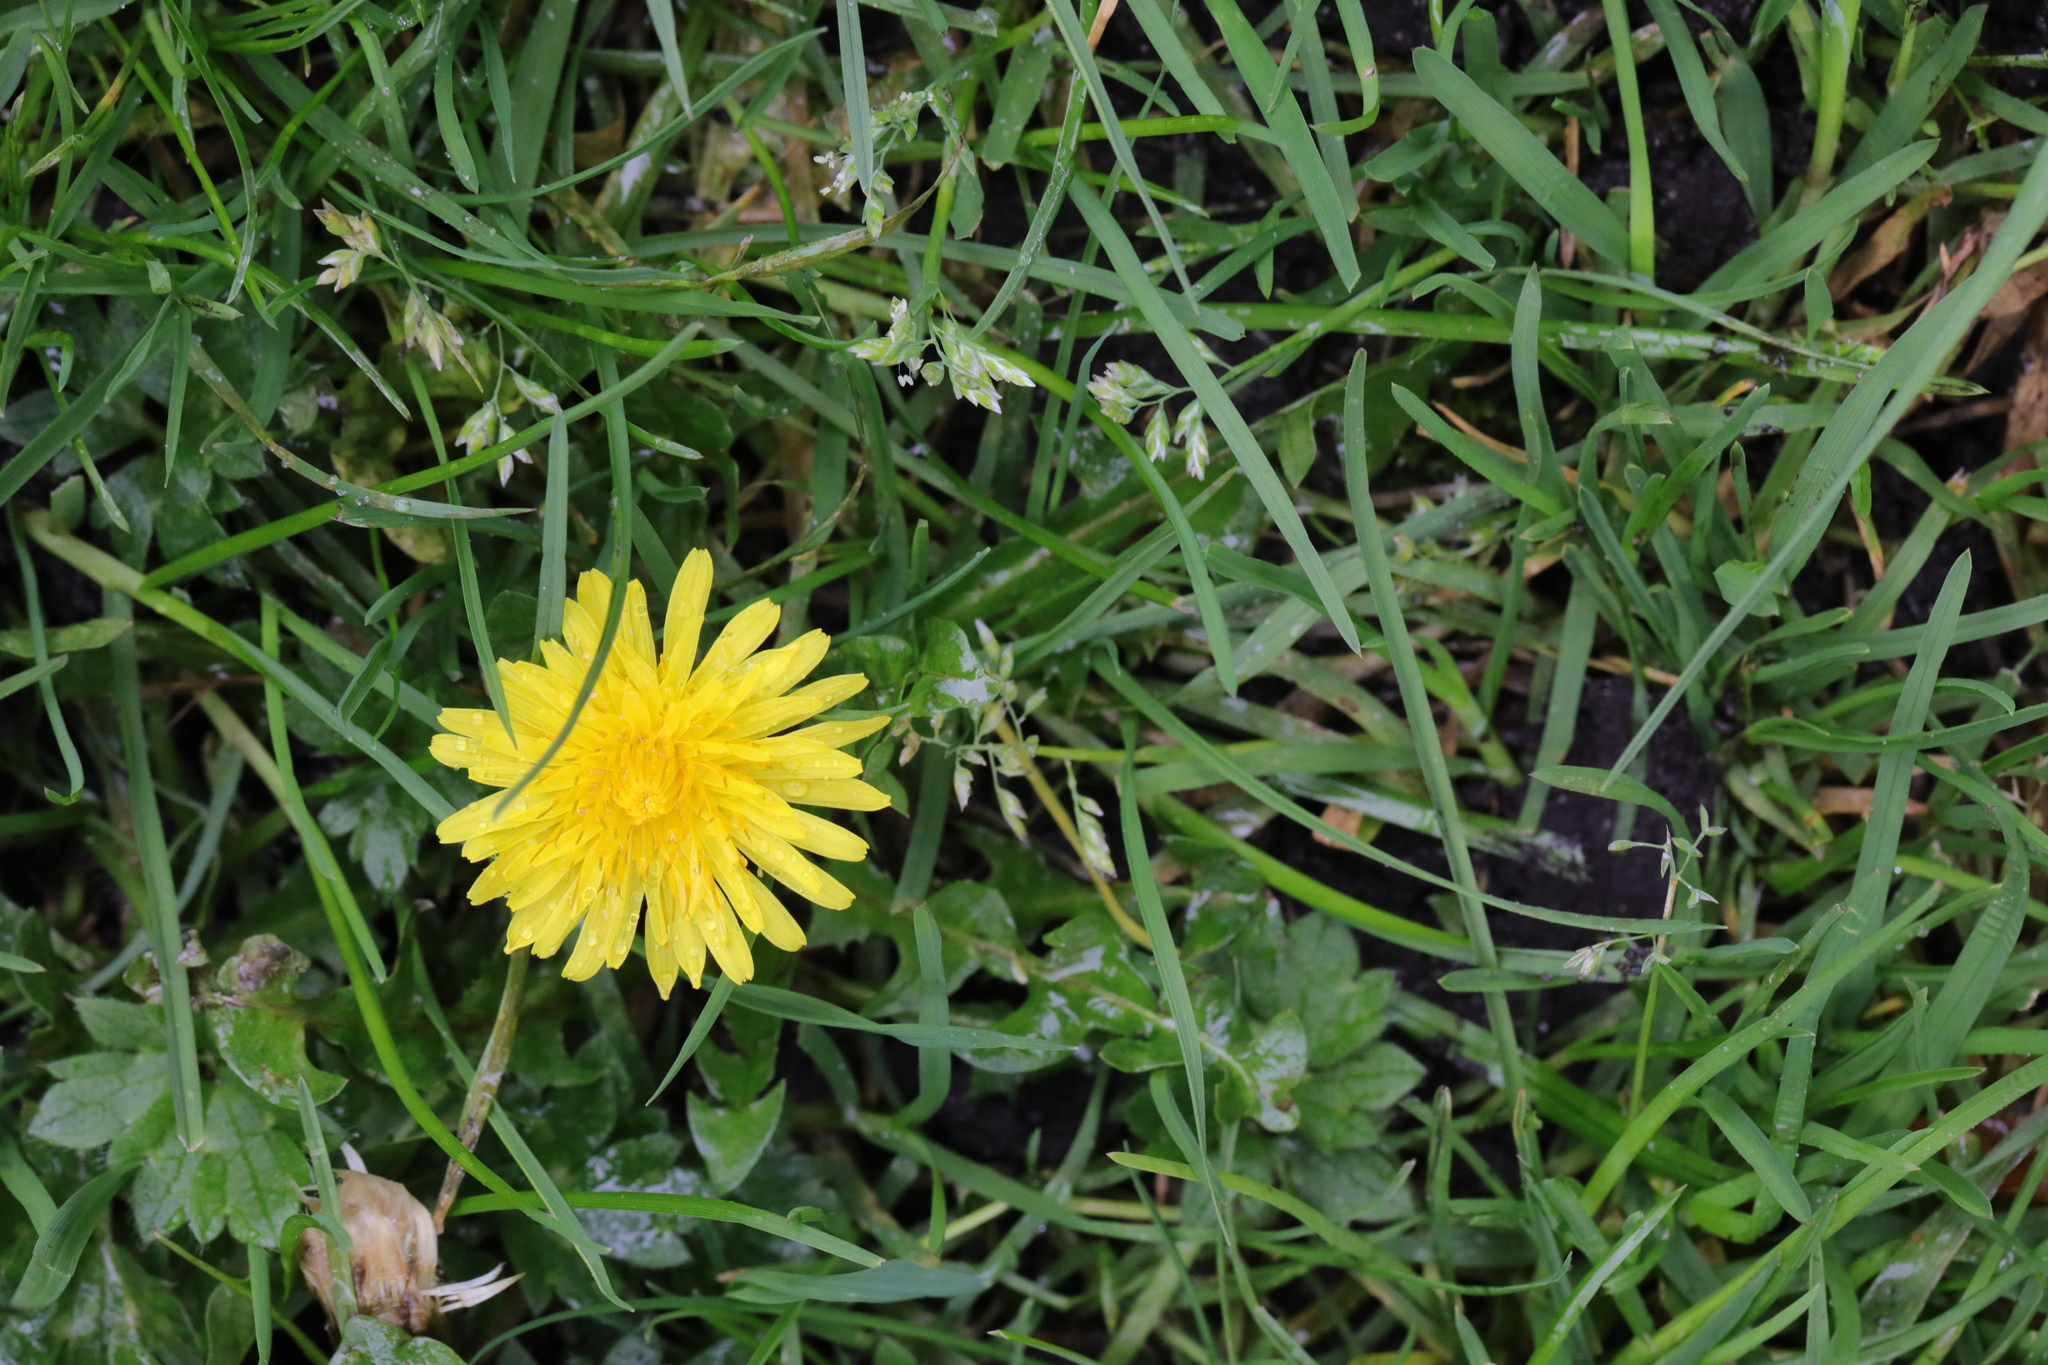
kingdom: Plantae
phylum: Tracheophyta
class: Magnoliopsida
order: Asterales
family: Asteraceae
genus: Taraxacum
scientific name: Taraxacum officinale
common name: Common dandelion
